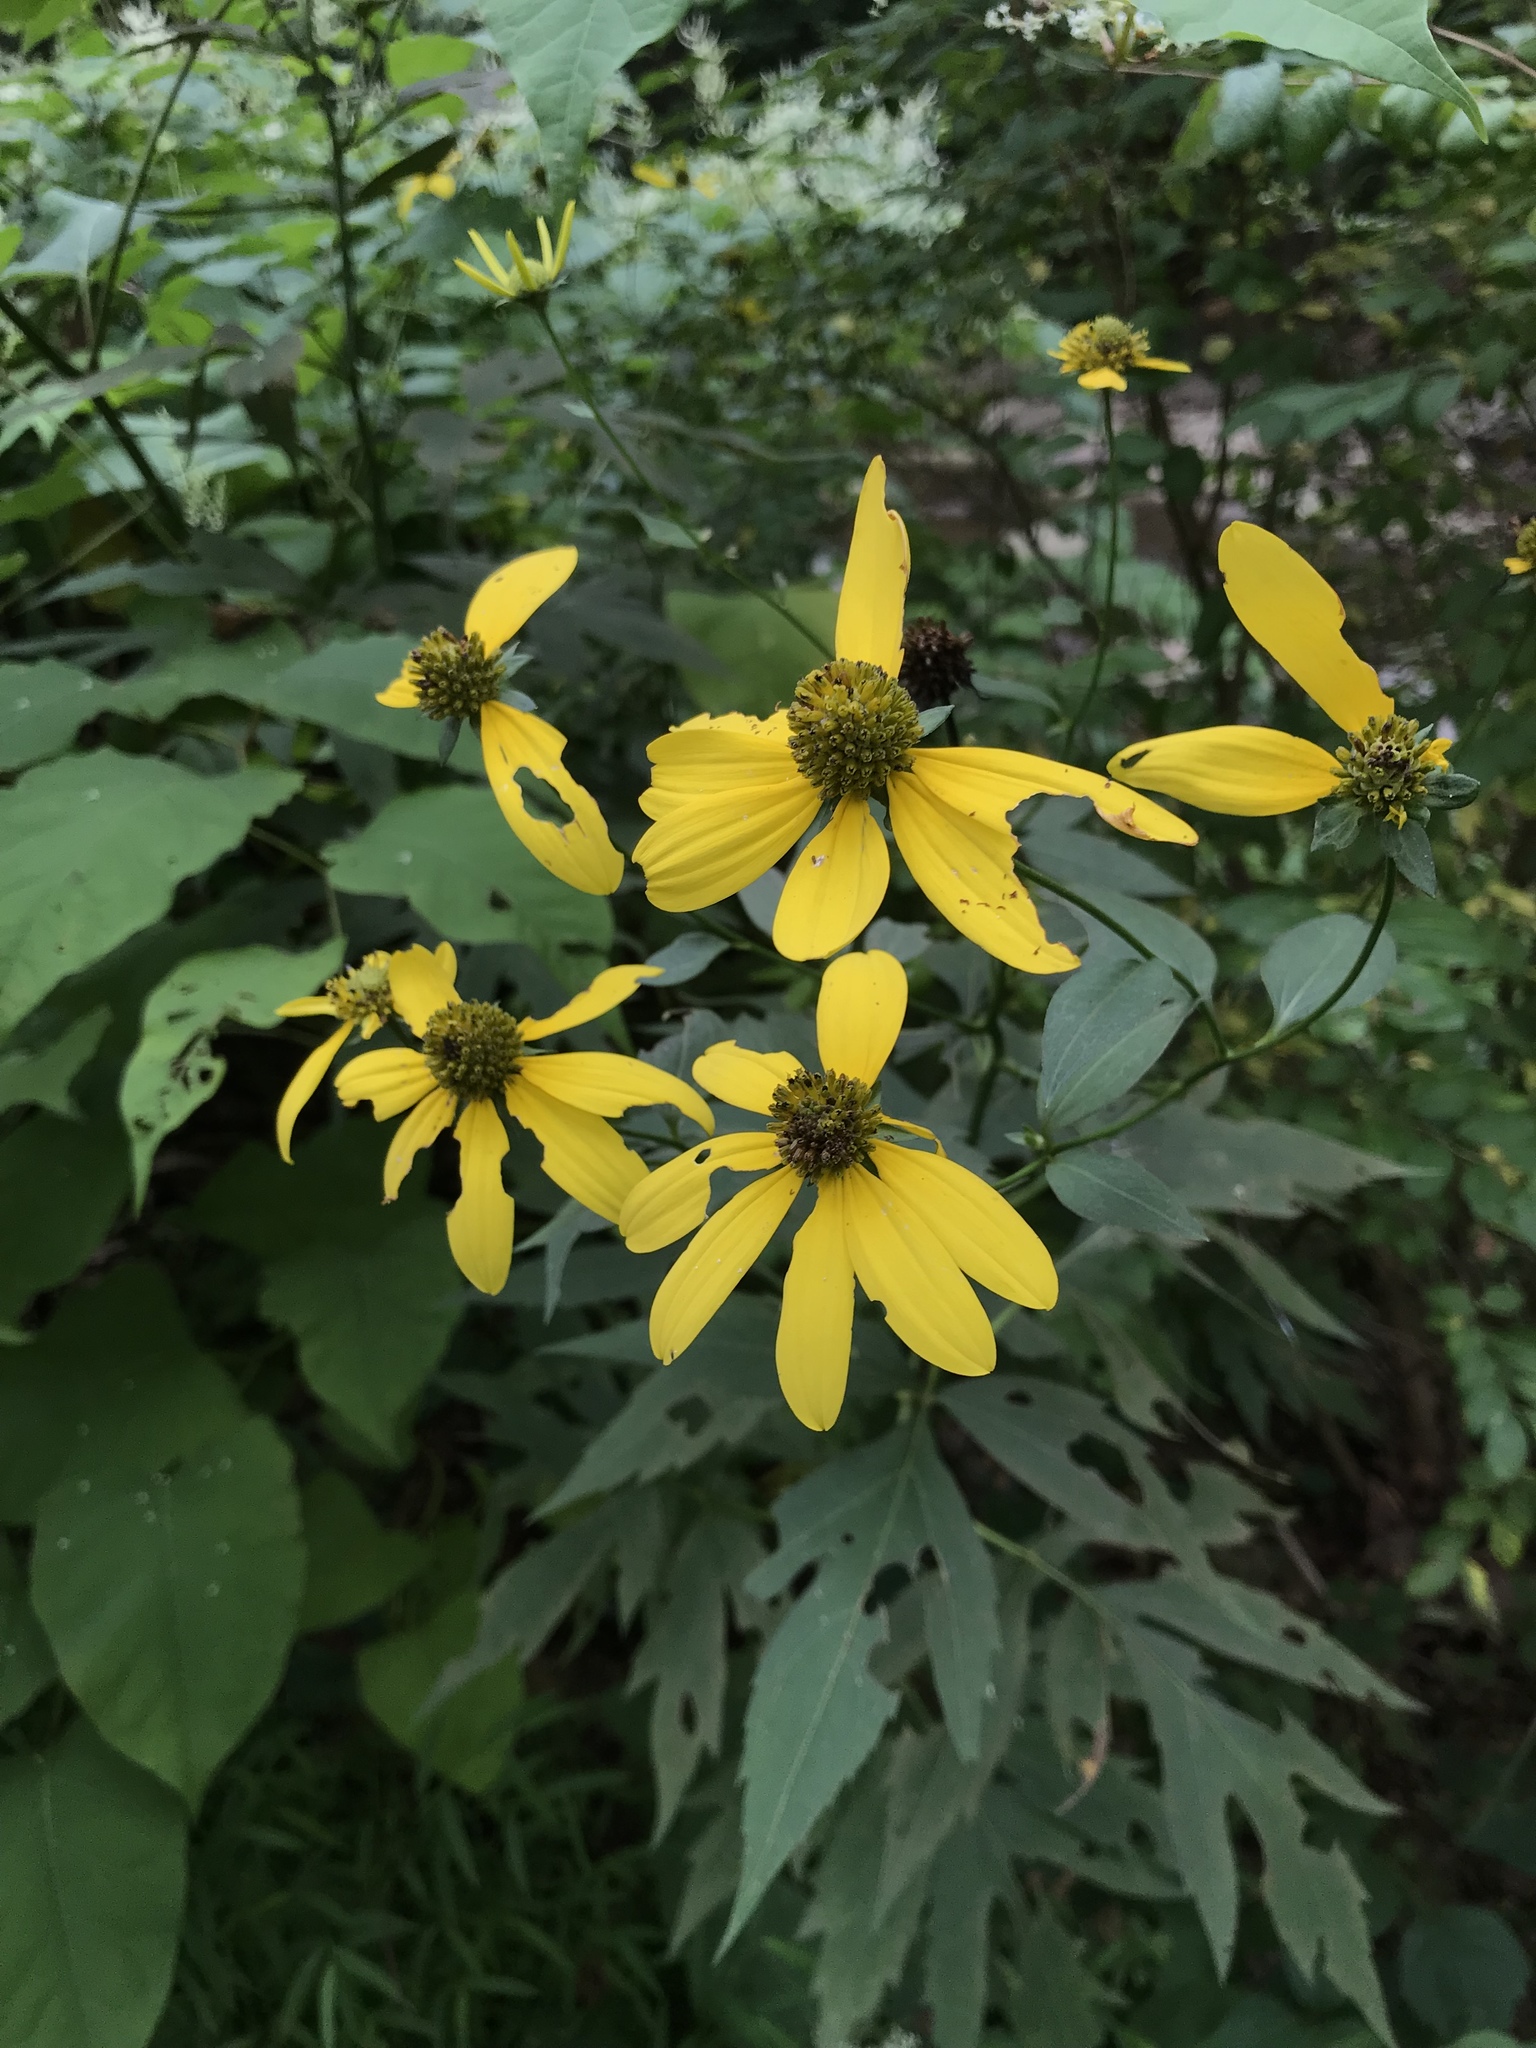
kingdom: Plantae
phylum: Tracheophyta
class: Magnoliopsida
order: Asterales
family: Asteraceae
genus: Rudbeckia
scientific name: Rudbeckia laciniata
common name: Coneflower
